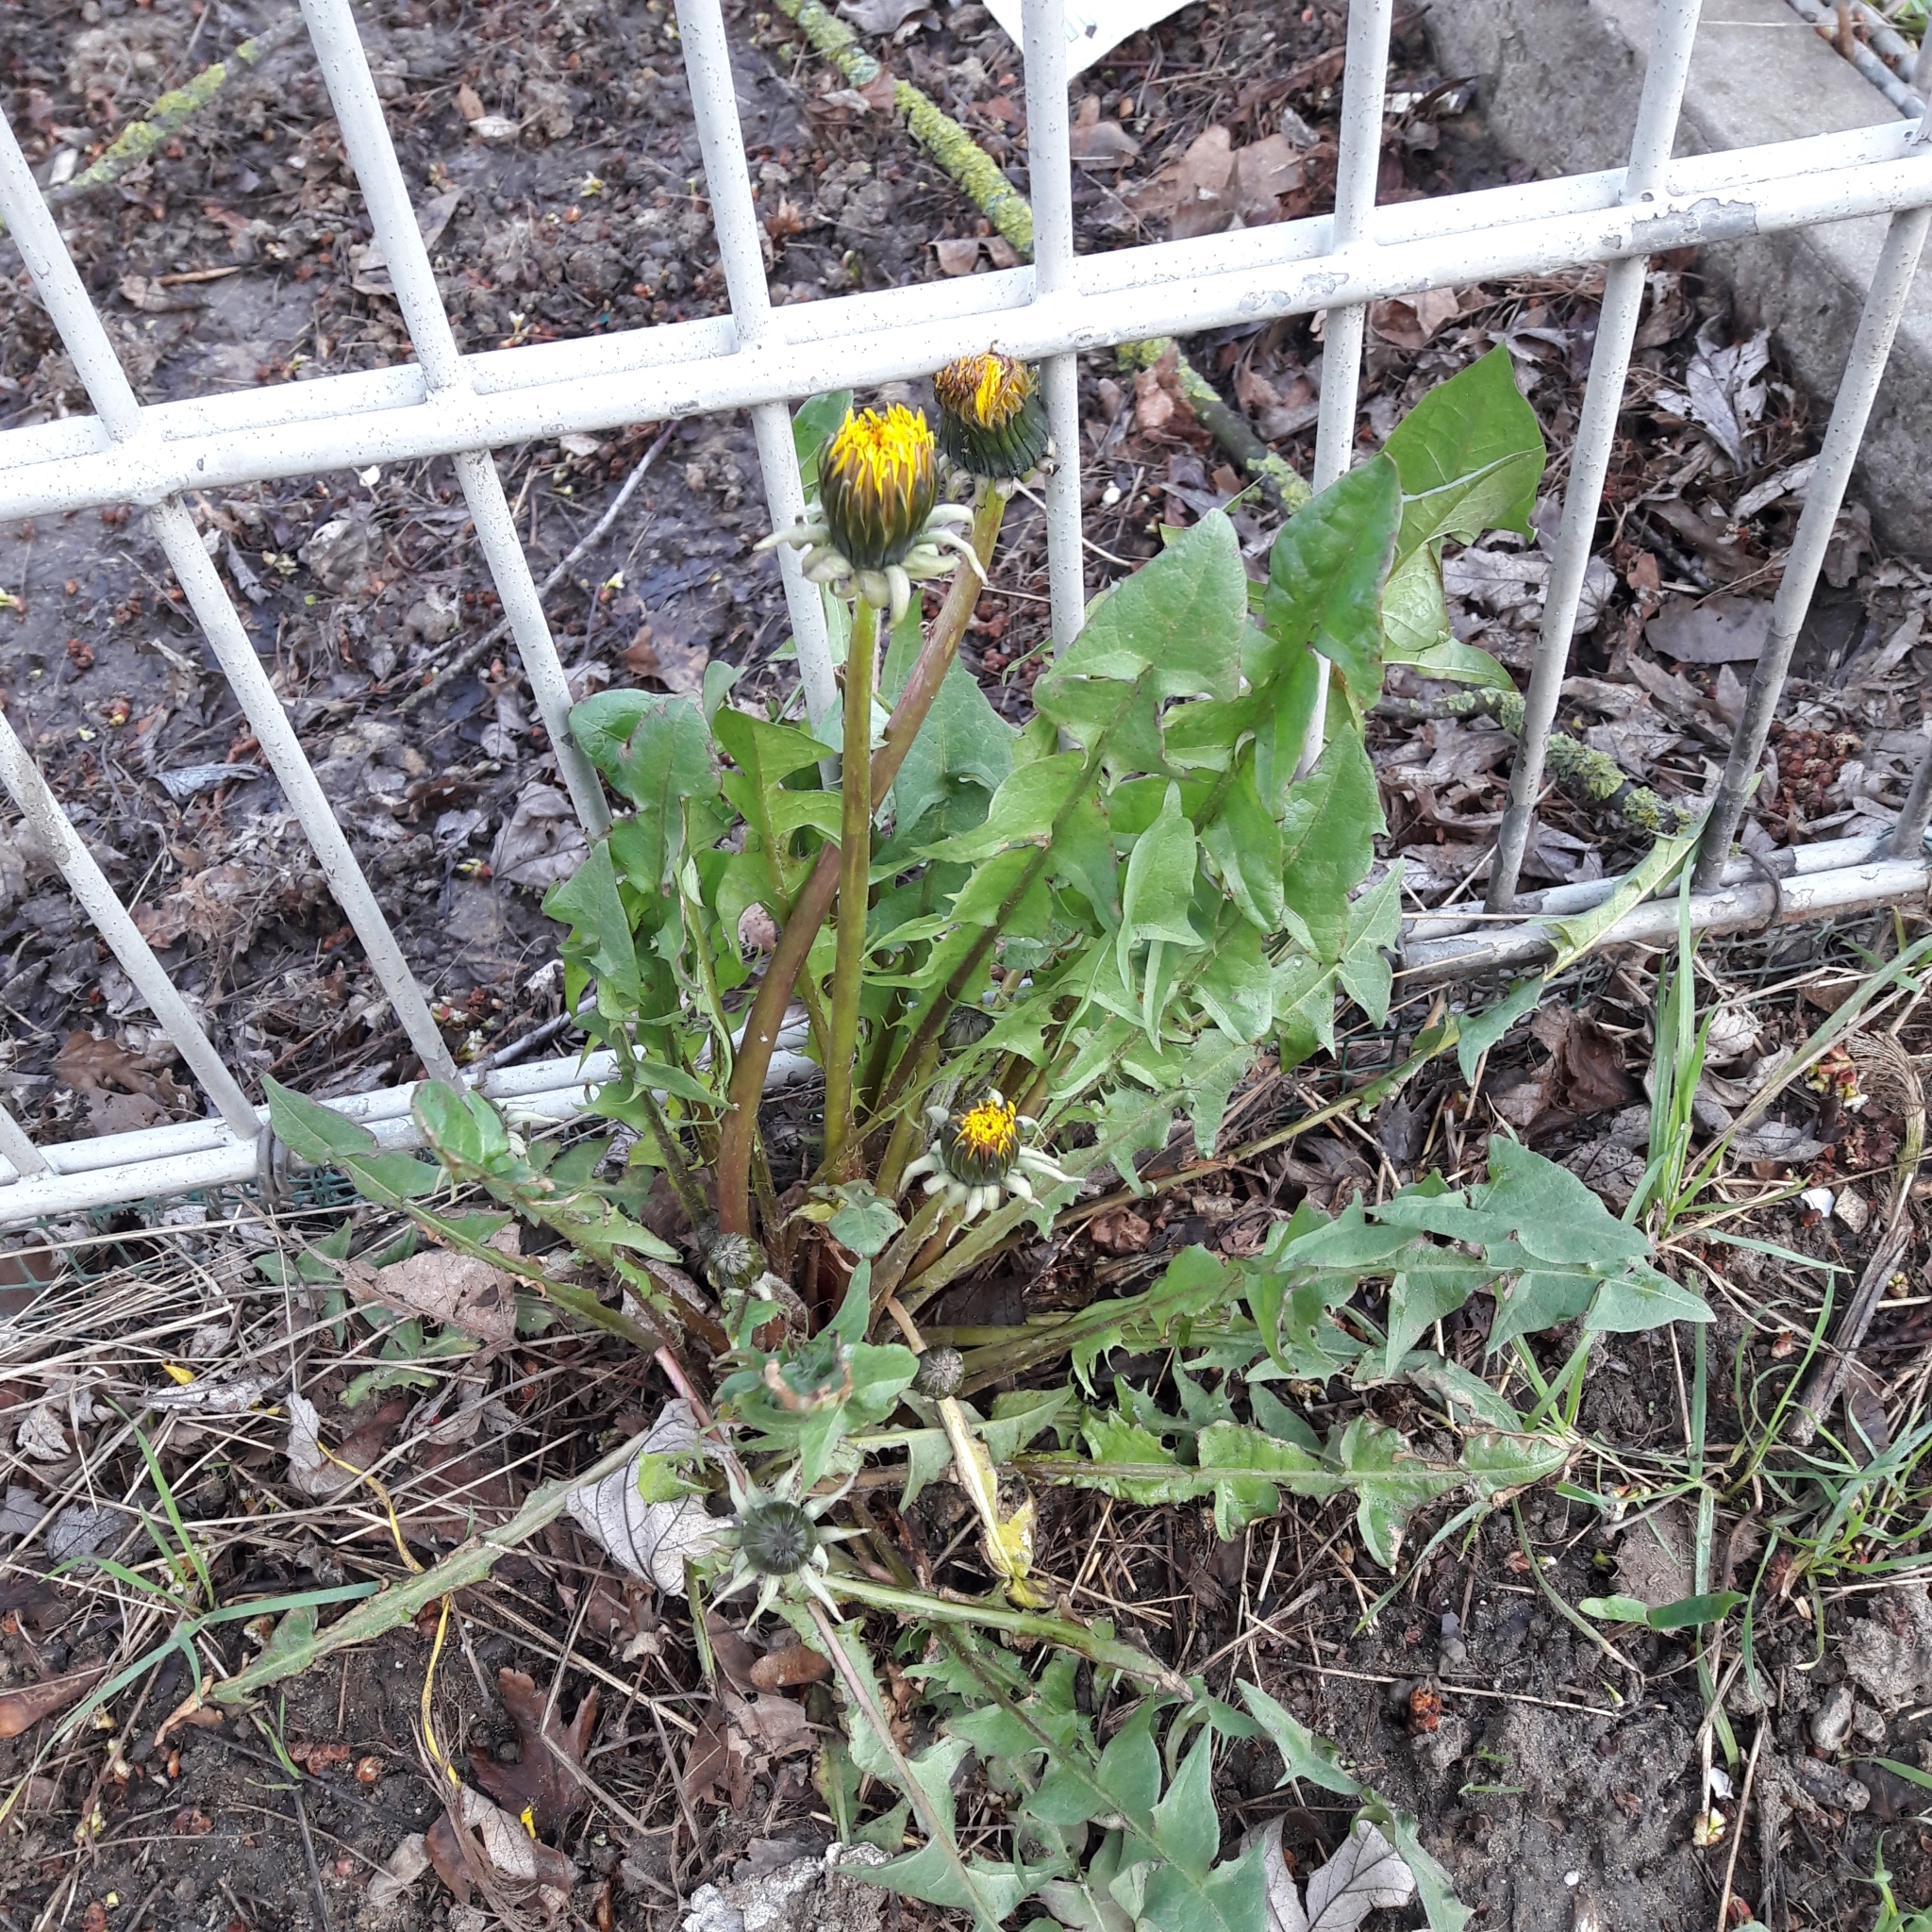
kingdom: Plantae
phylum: Tracheophyta
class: Magnoliopsida
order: Asterales
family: Asteraceae
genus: Taraxacum
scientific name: Taraxacum officinale
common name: Common dandelion
